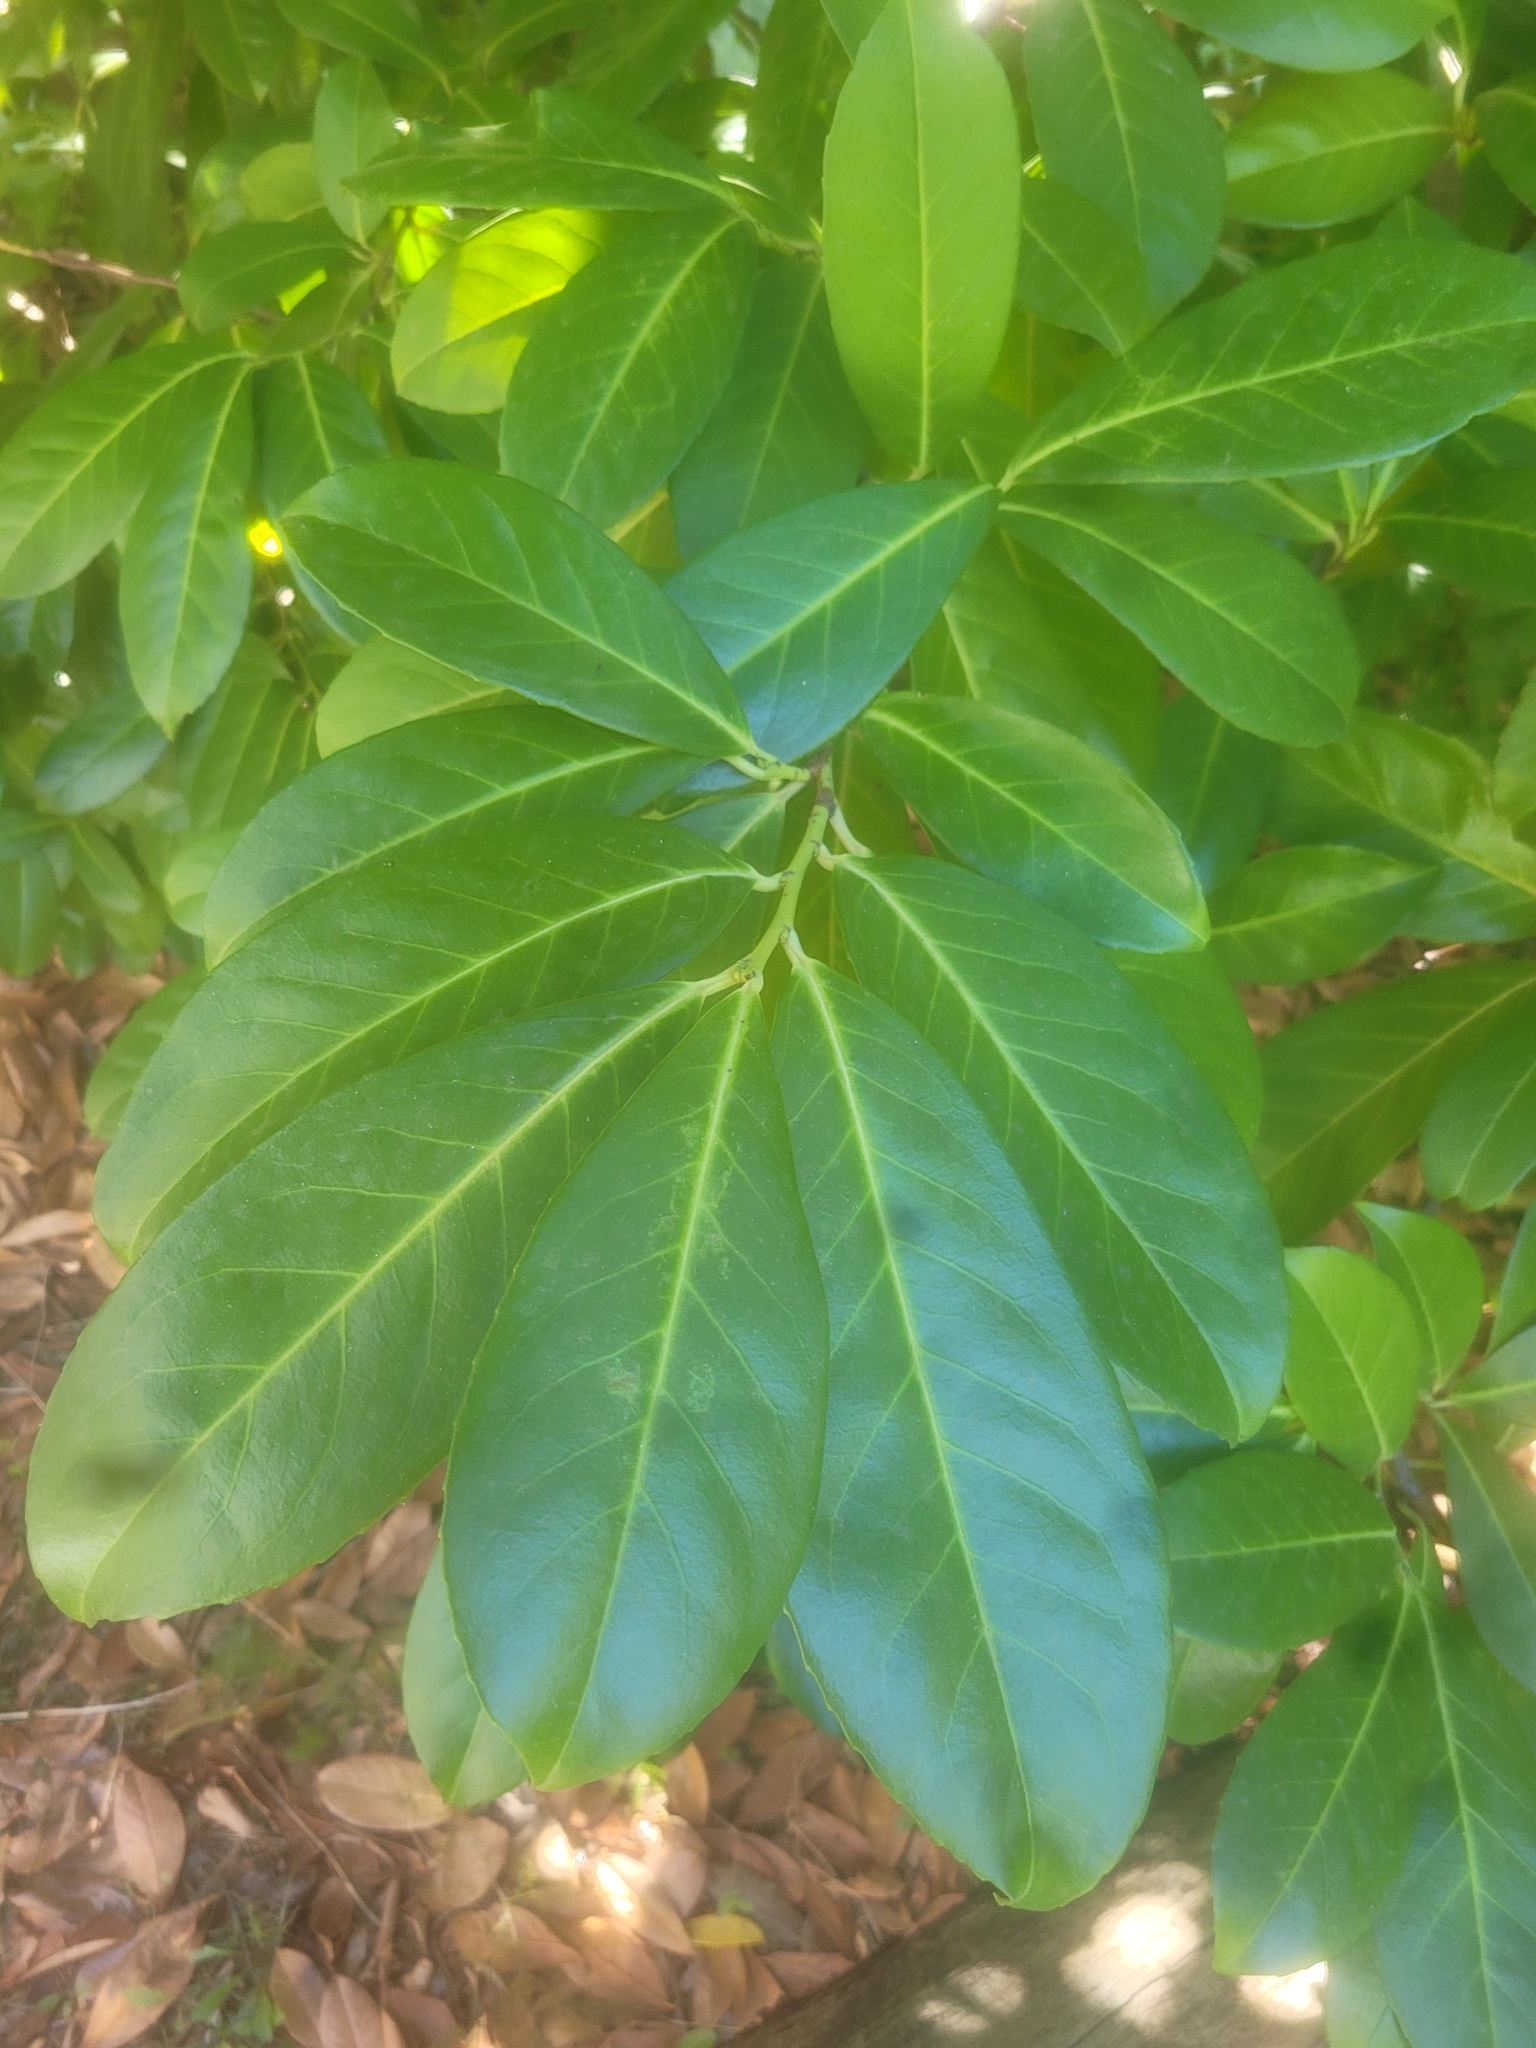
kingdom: Plantae
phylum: Tracheophyta
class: Magnoliopsida
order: Rosales
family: Rosaceae
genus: Prunus
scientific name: Prunus laurocerasus
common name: Cherry laurel
